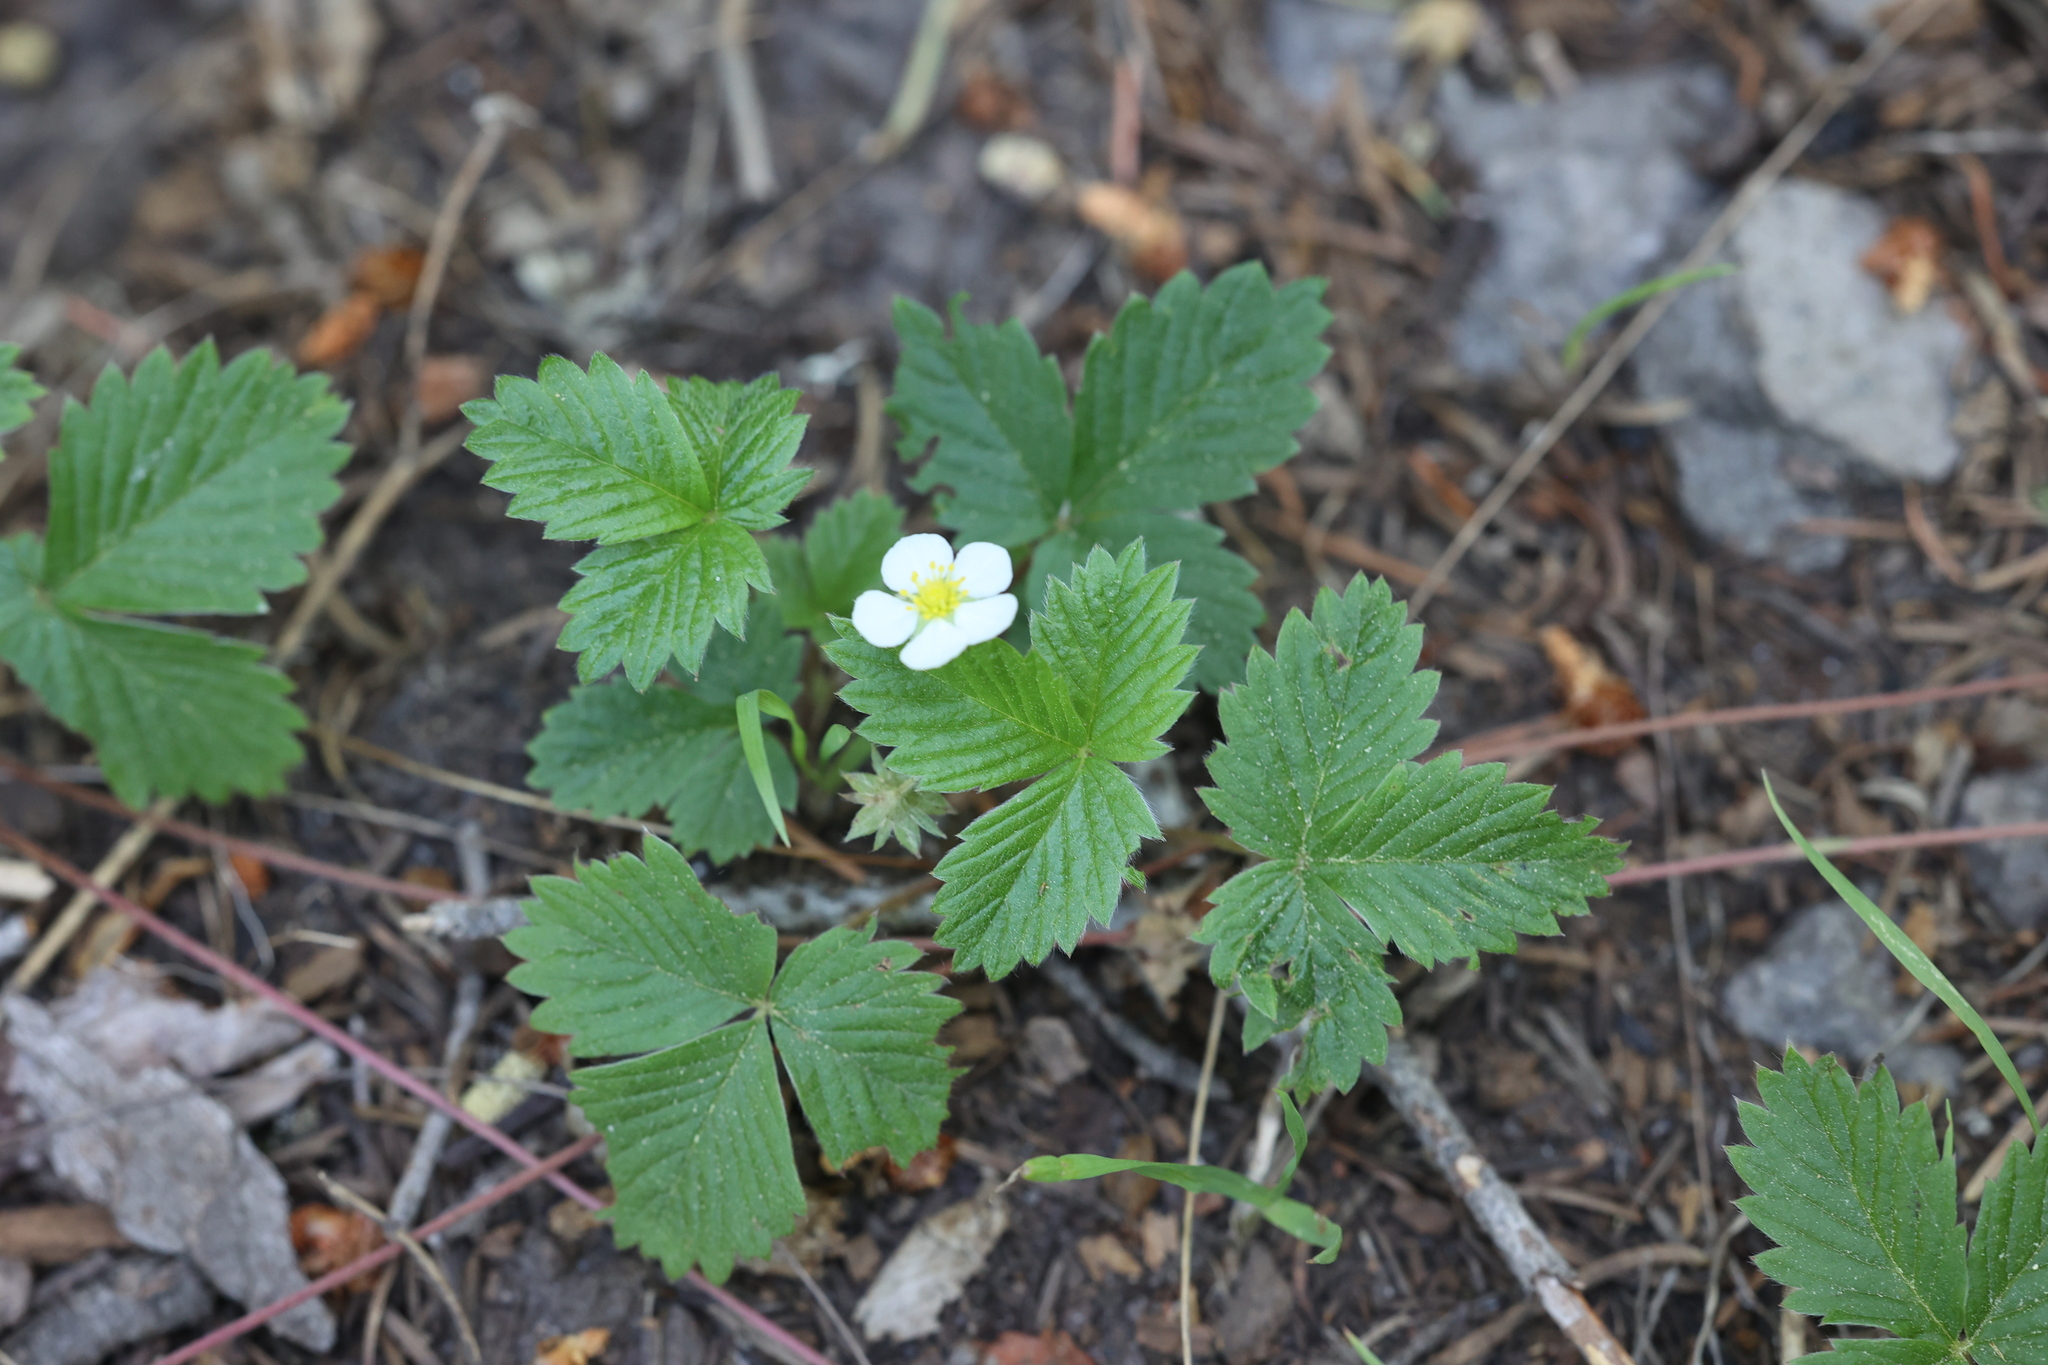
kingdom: Plantae
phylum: Tracheophyta
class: Magnoliopsida
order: Rosales
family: Rosaceae
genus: Fragaria
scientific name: Fragaria vesca
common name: Wild strawberry
